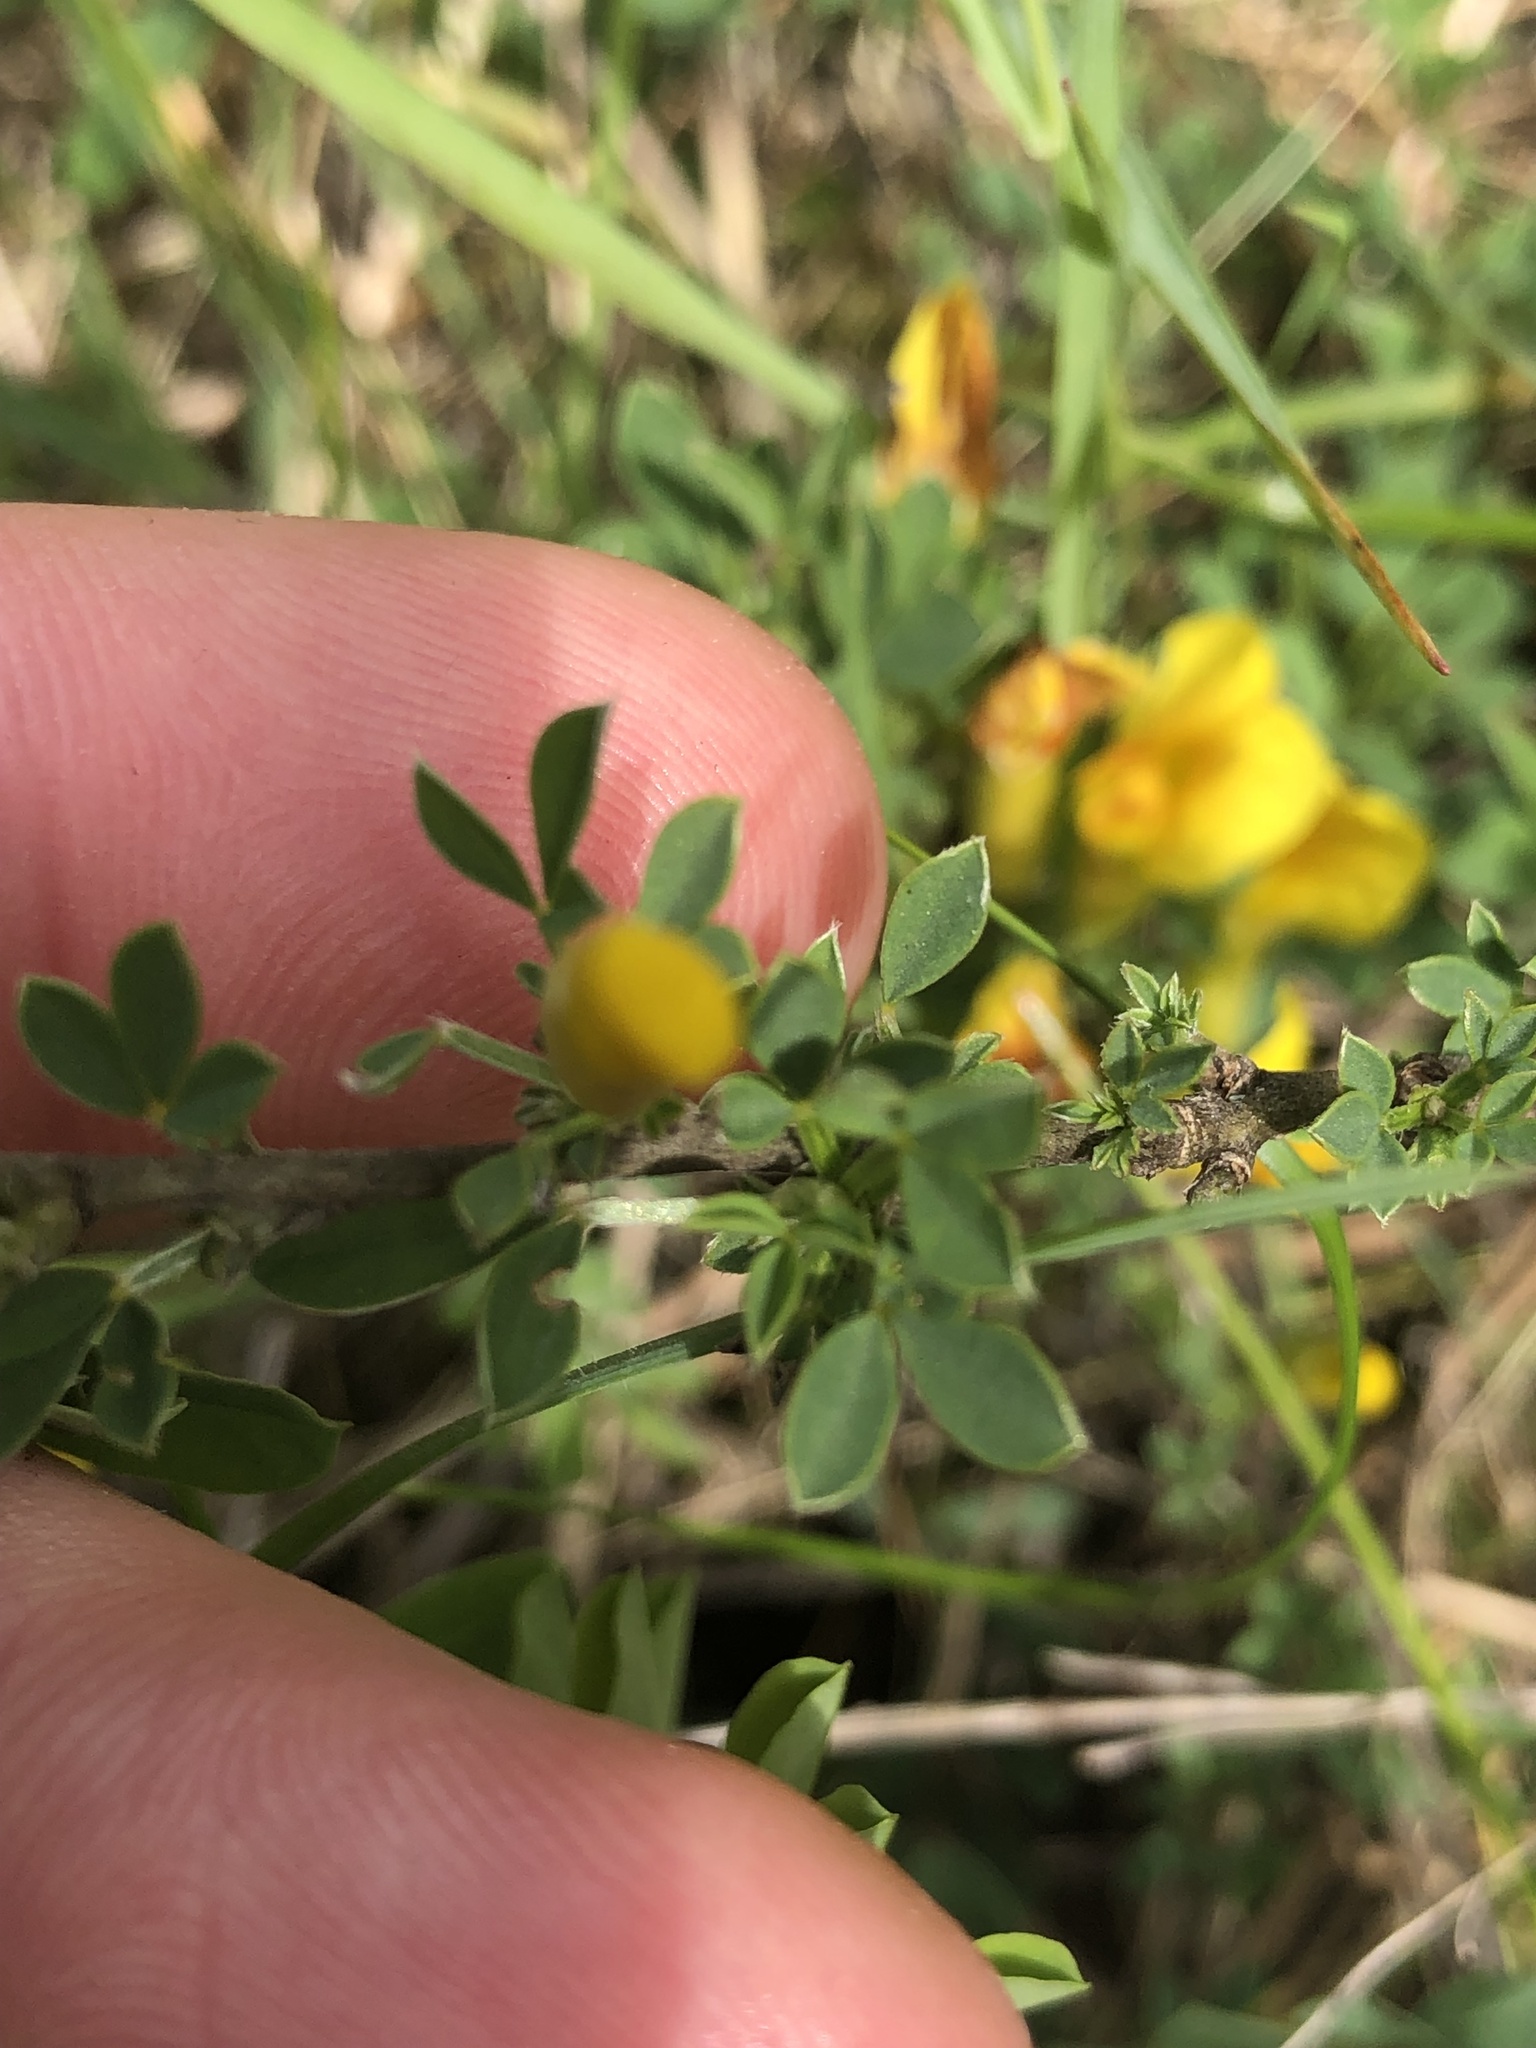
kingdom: Plantae
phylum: Tracheophyta
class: Magnoliopsida
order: Fabales
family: Fabaceae
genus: Chamaecytisus
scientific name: Chamaecytisus ratisbonensis
